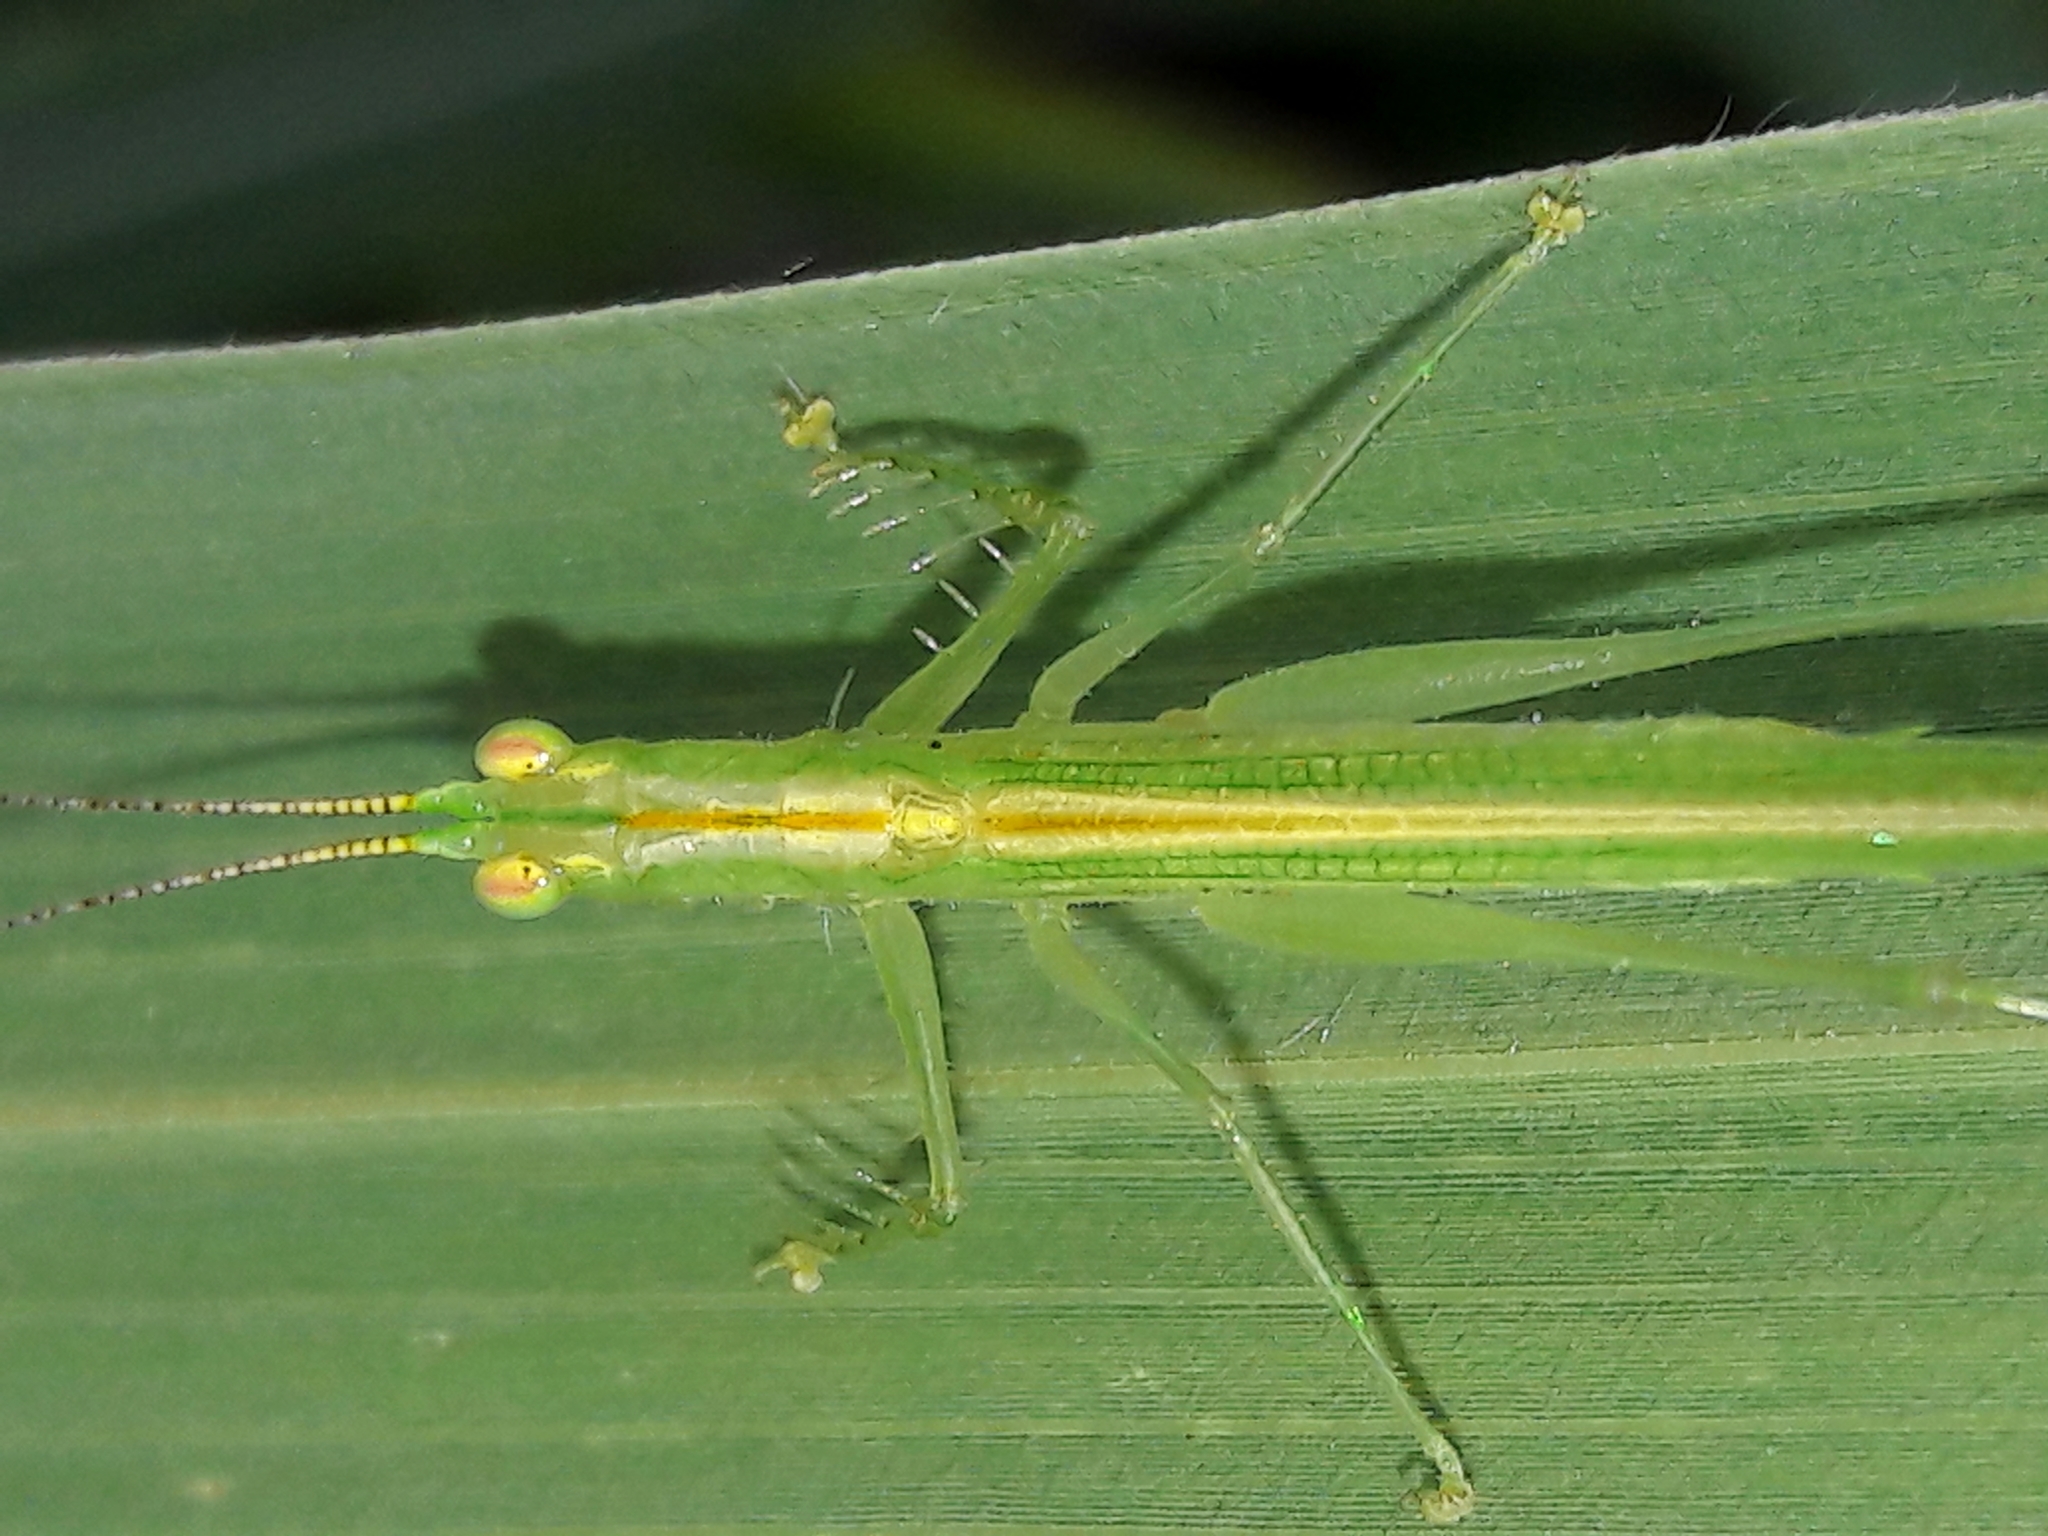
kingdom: Animalia
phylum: Arthropoda
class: Insecta
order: Orthoptera
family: Tettigoniidae
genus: Phlugis
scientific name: Phlugis ocraceovittata
